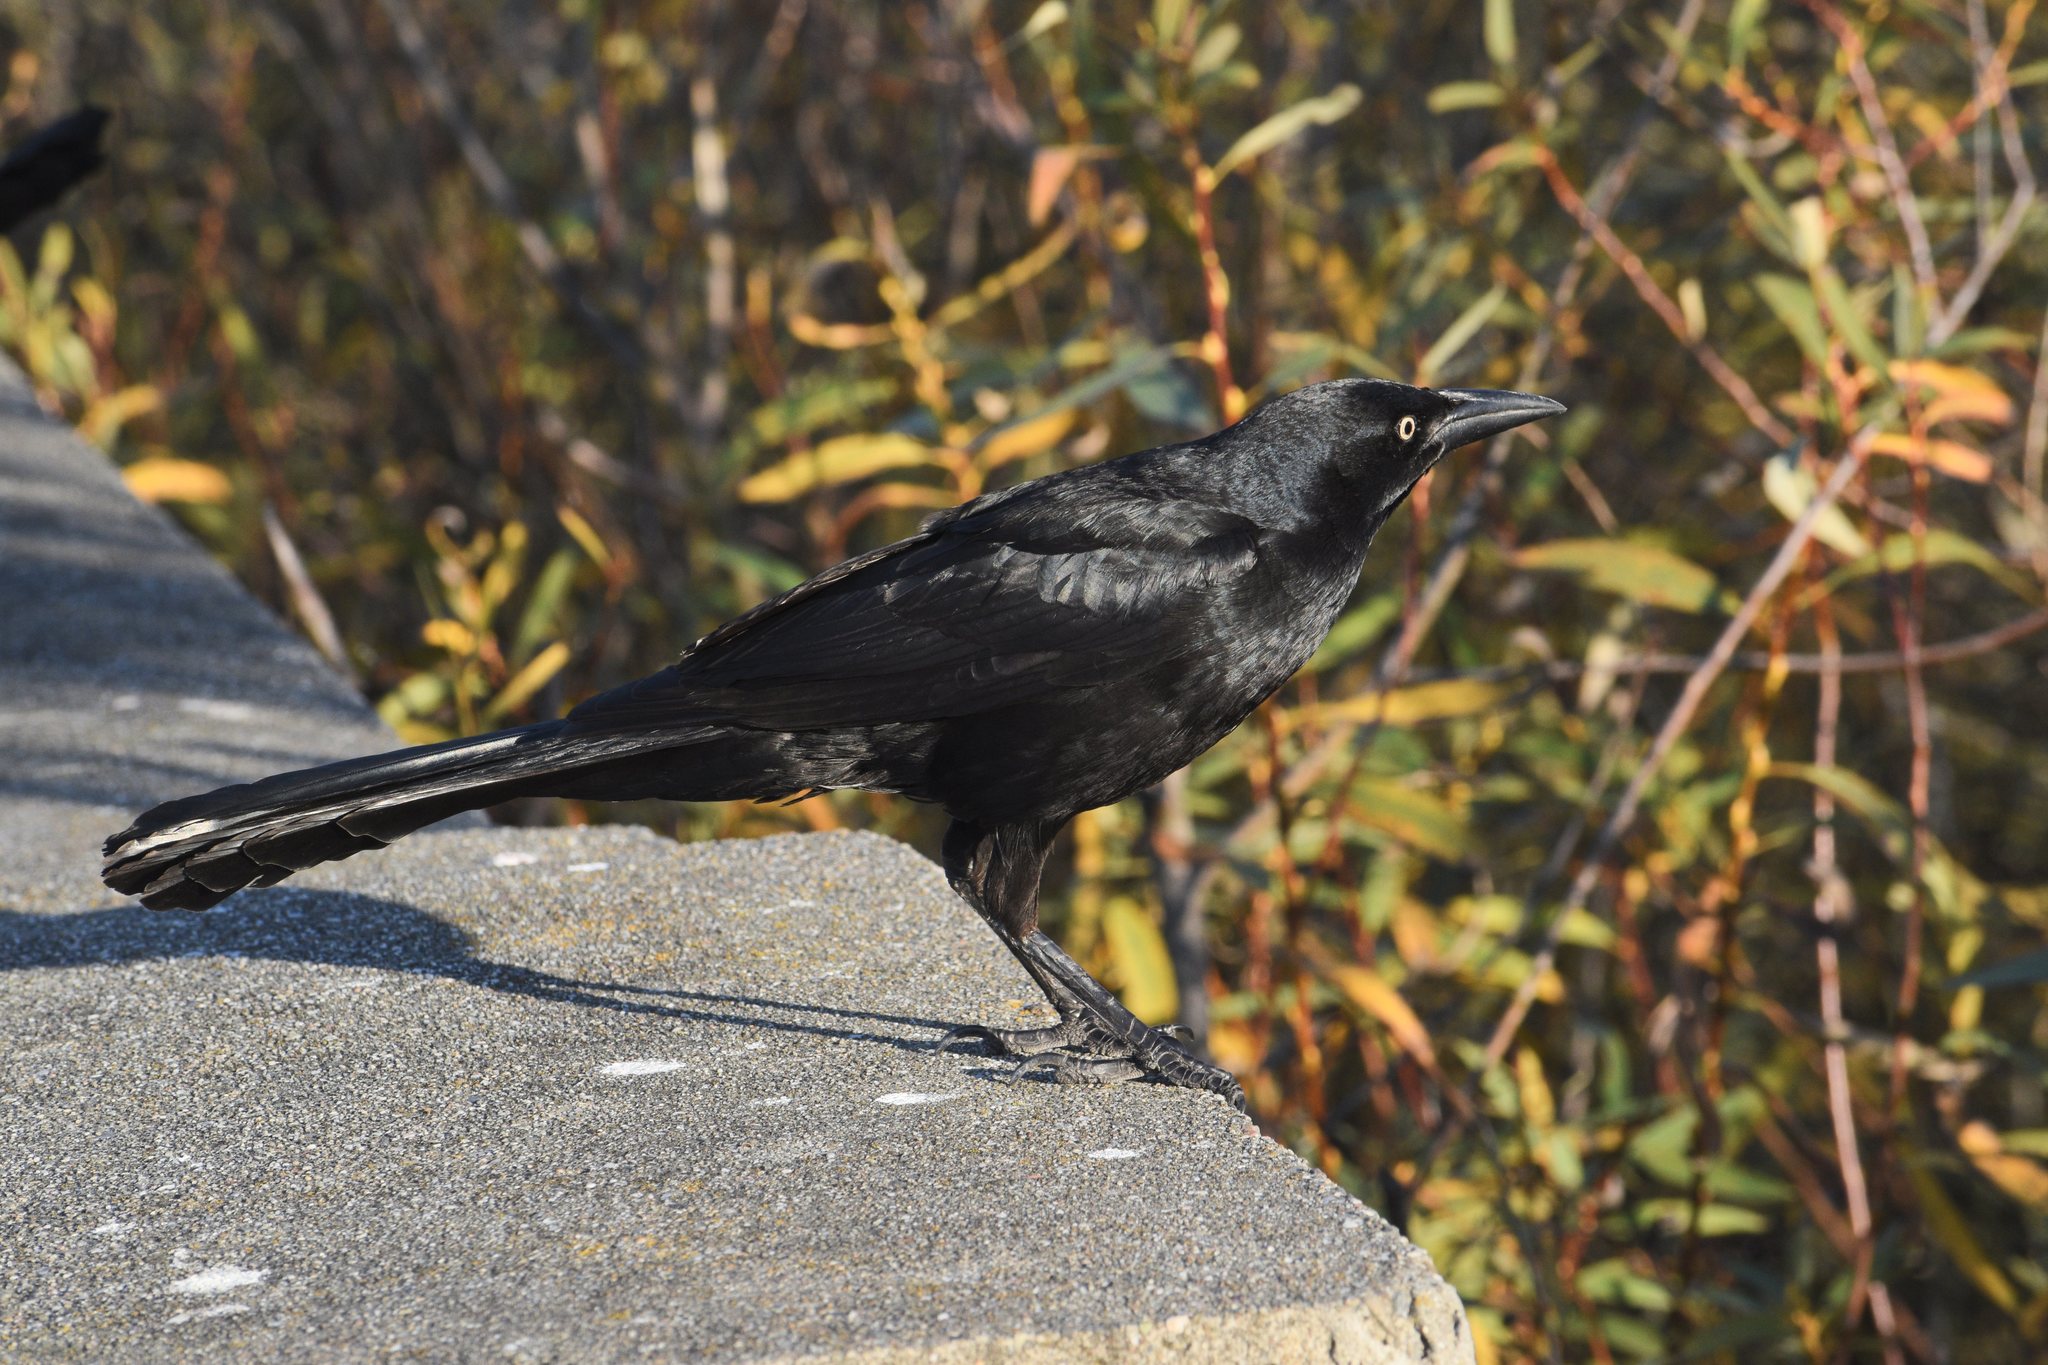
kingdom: Animalia
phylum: Chordata
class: Aves
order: Passeriformes
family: Icteridae
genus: Quiscalus
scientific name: Quiscalus mexicanus
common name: Great-tailed grackle
